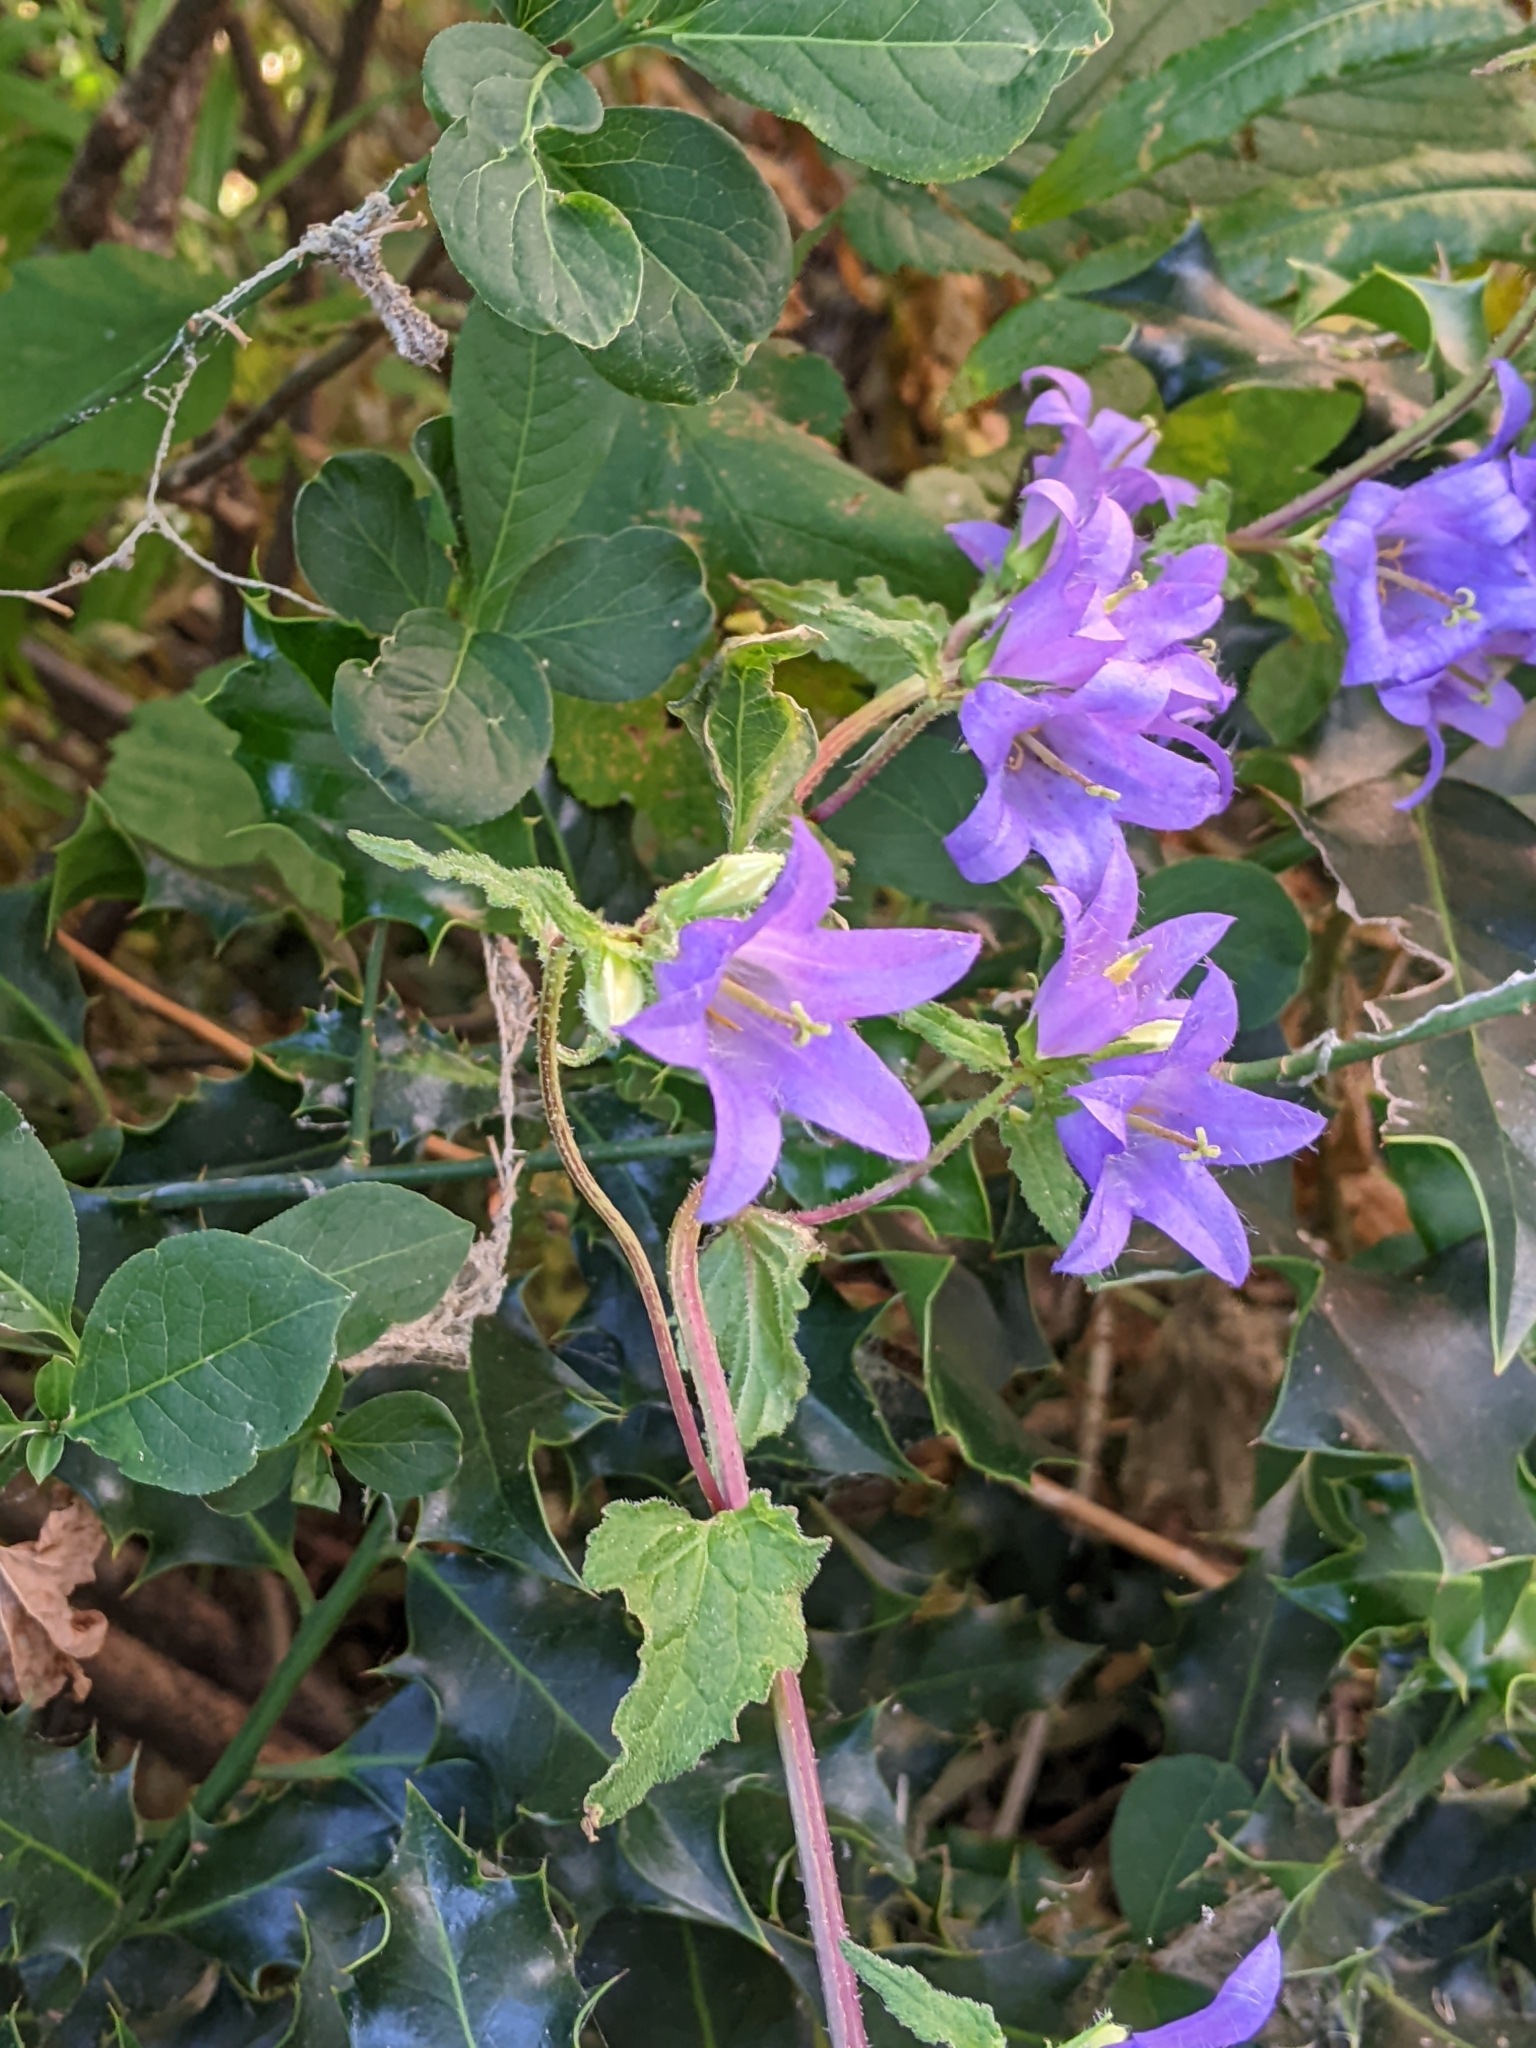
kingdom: Plantae
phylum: Tracheophyta
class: Magnoliopsida
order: Asterales
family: Campanulaceae
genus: Campanula
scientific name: Campanula trachelium
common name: Nettle-leaved bellflower
